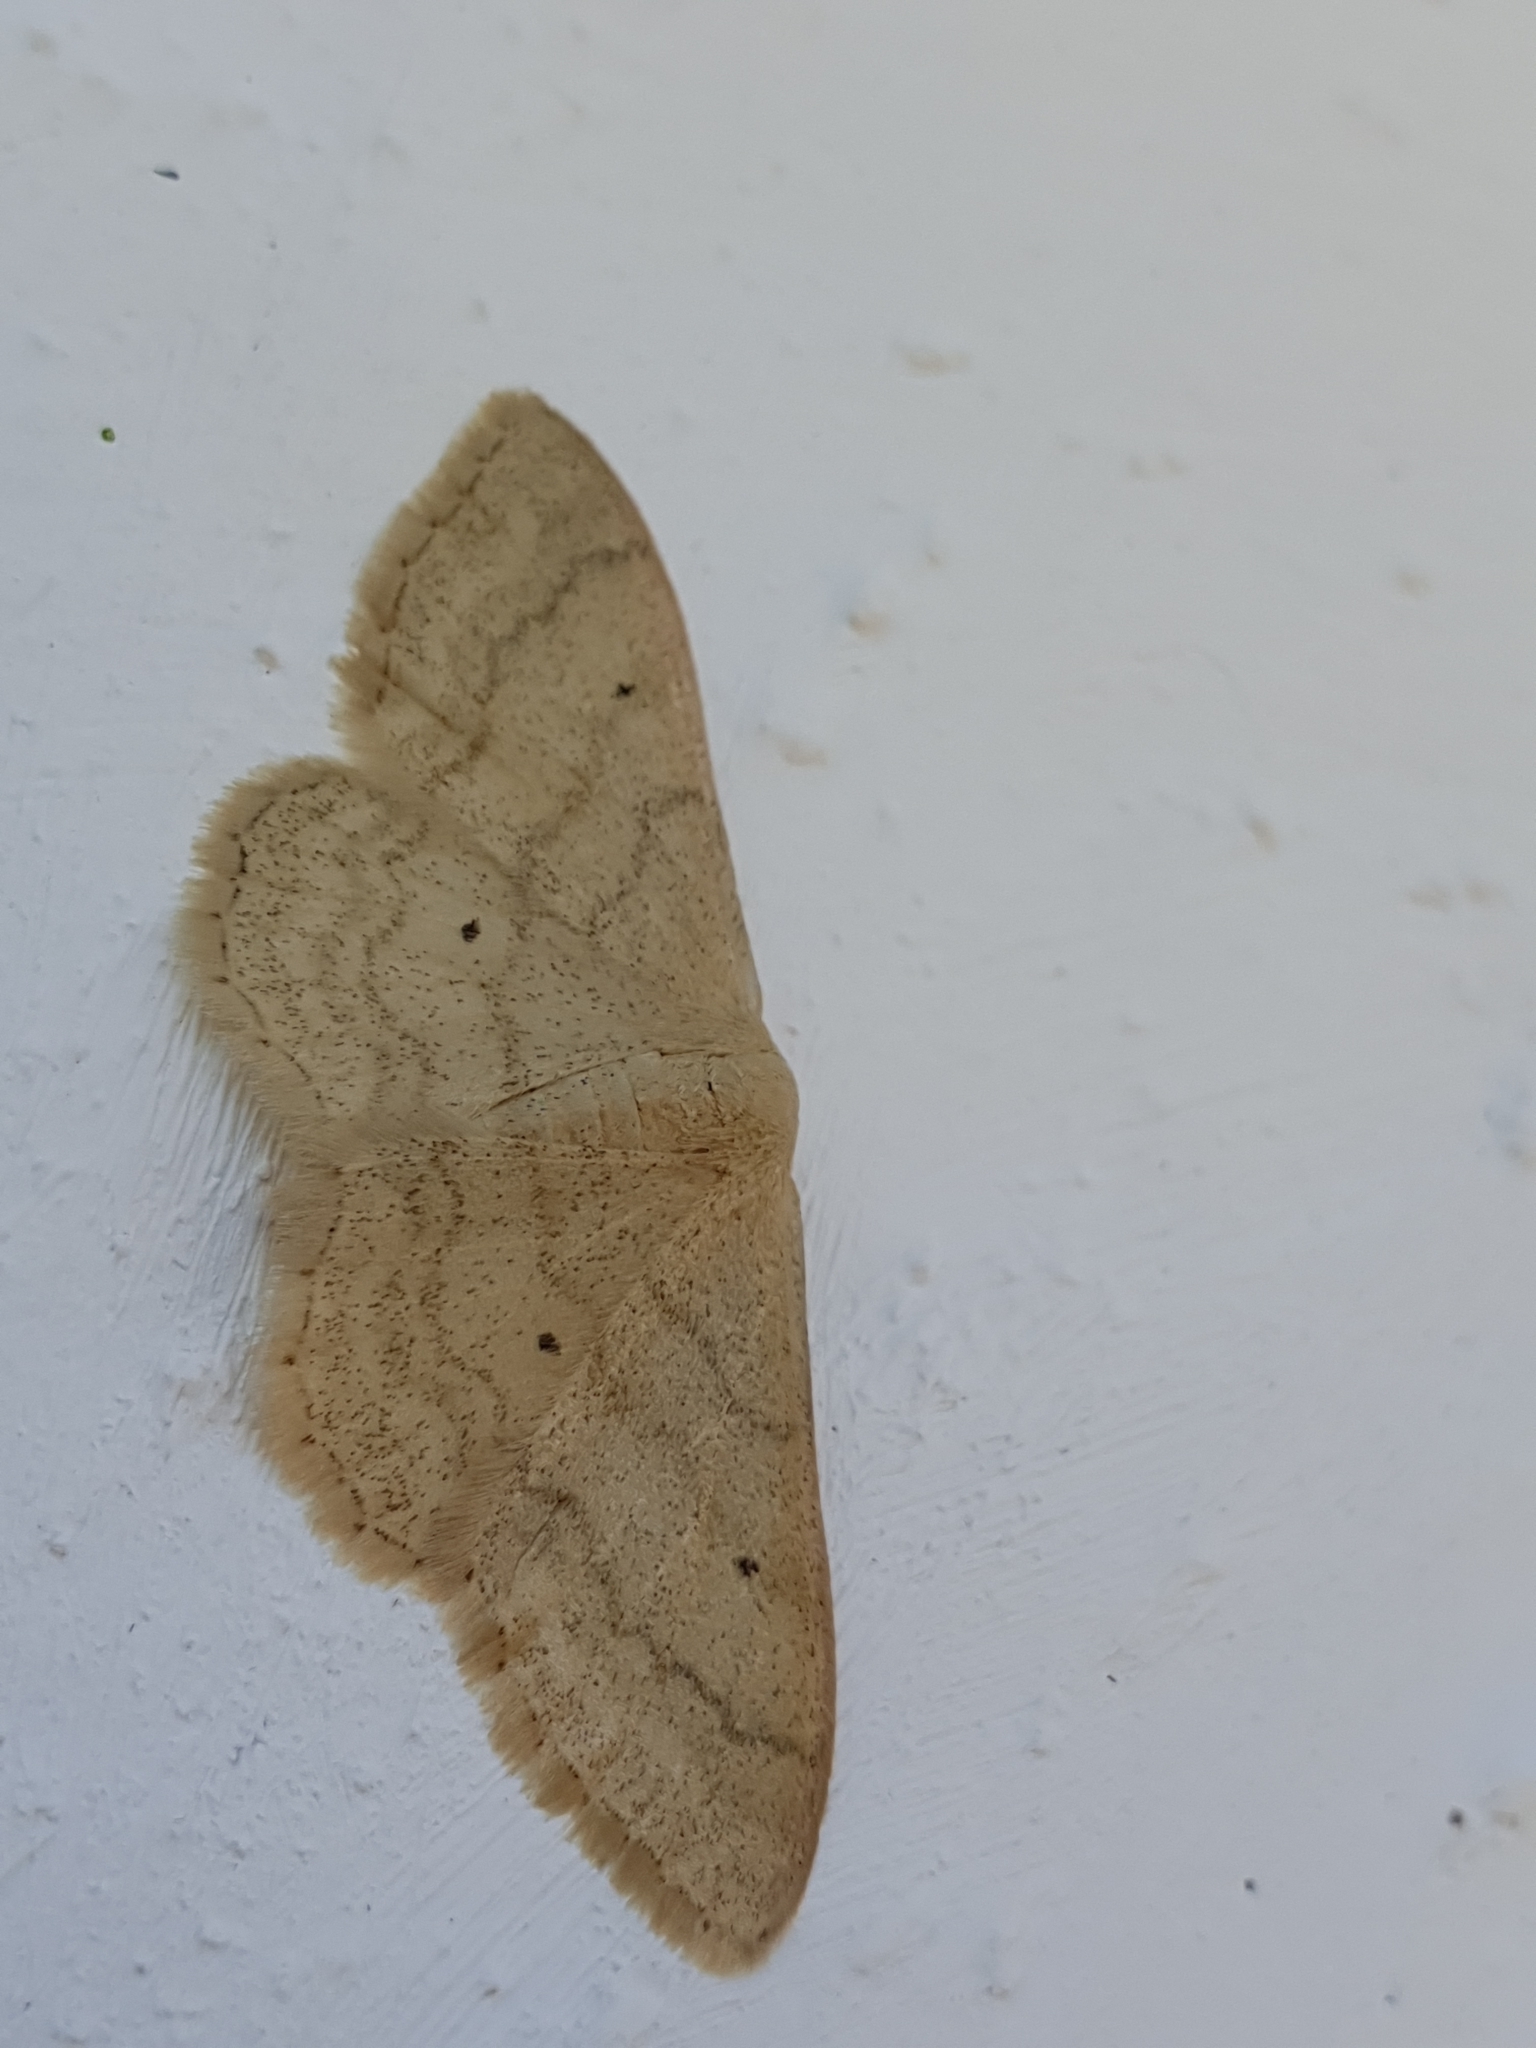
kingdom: Animalia
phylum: Arthropoda
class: Insecta
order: Lepidoptera
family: Geometridae
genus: Idaea
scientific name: Idaea maritimaria
